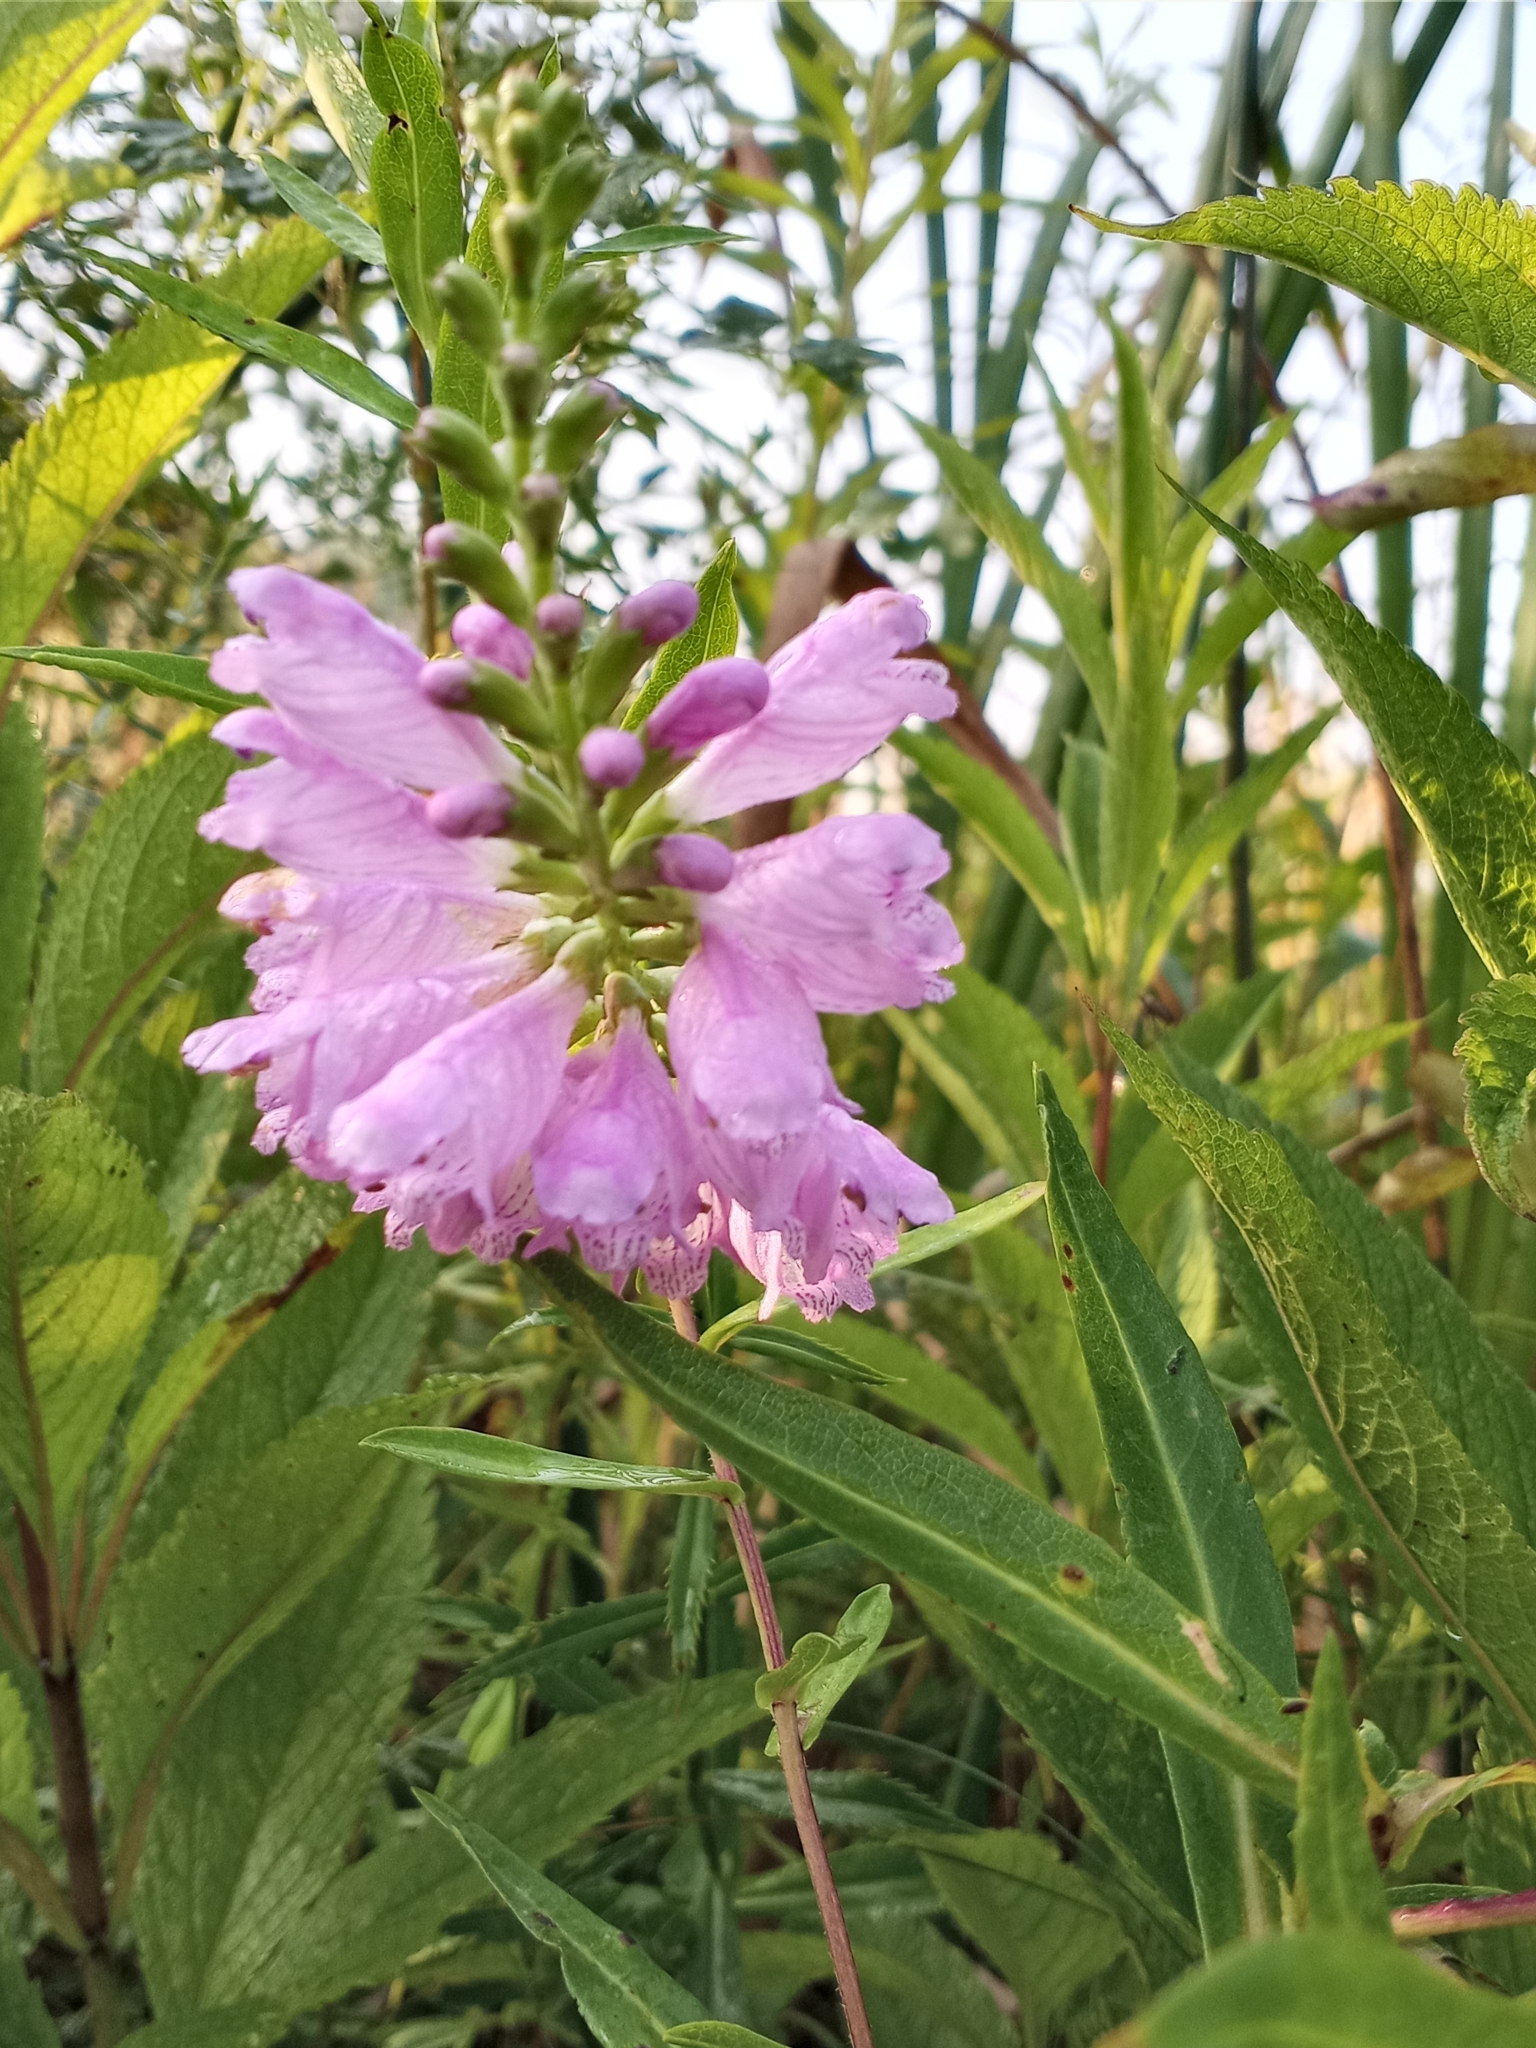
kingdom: Plantae
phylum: Tracheophyta
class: Magnoliopsida
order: Lamiales
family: Lamiaceae
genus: Physostegia
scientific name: Physostegia virginiana
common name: Obedient-plant
